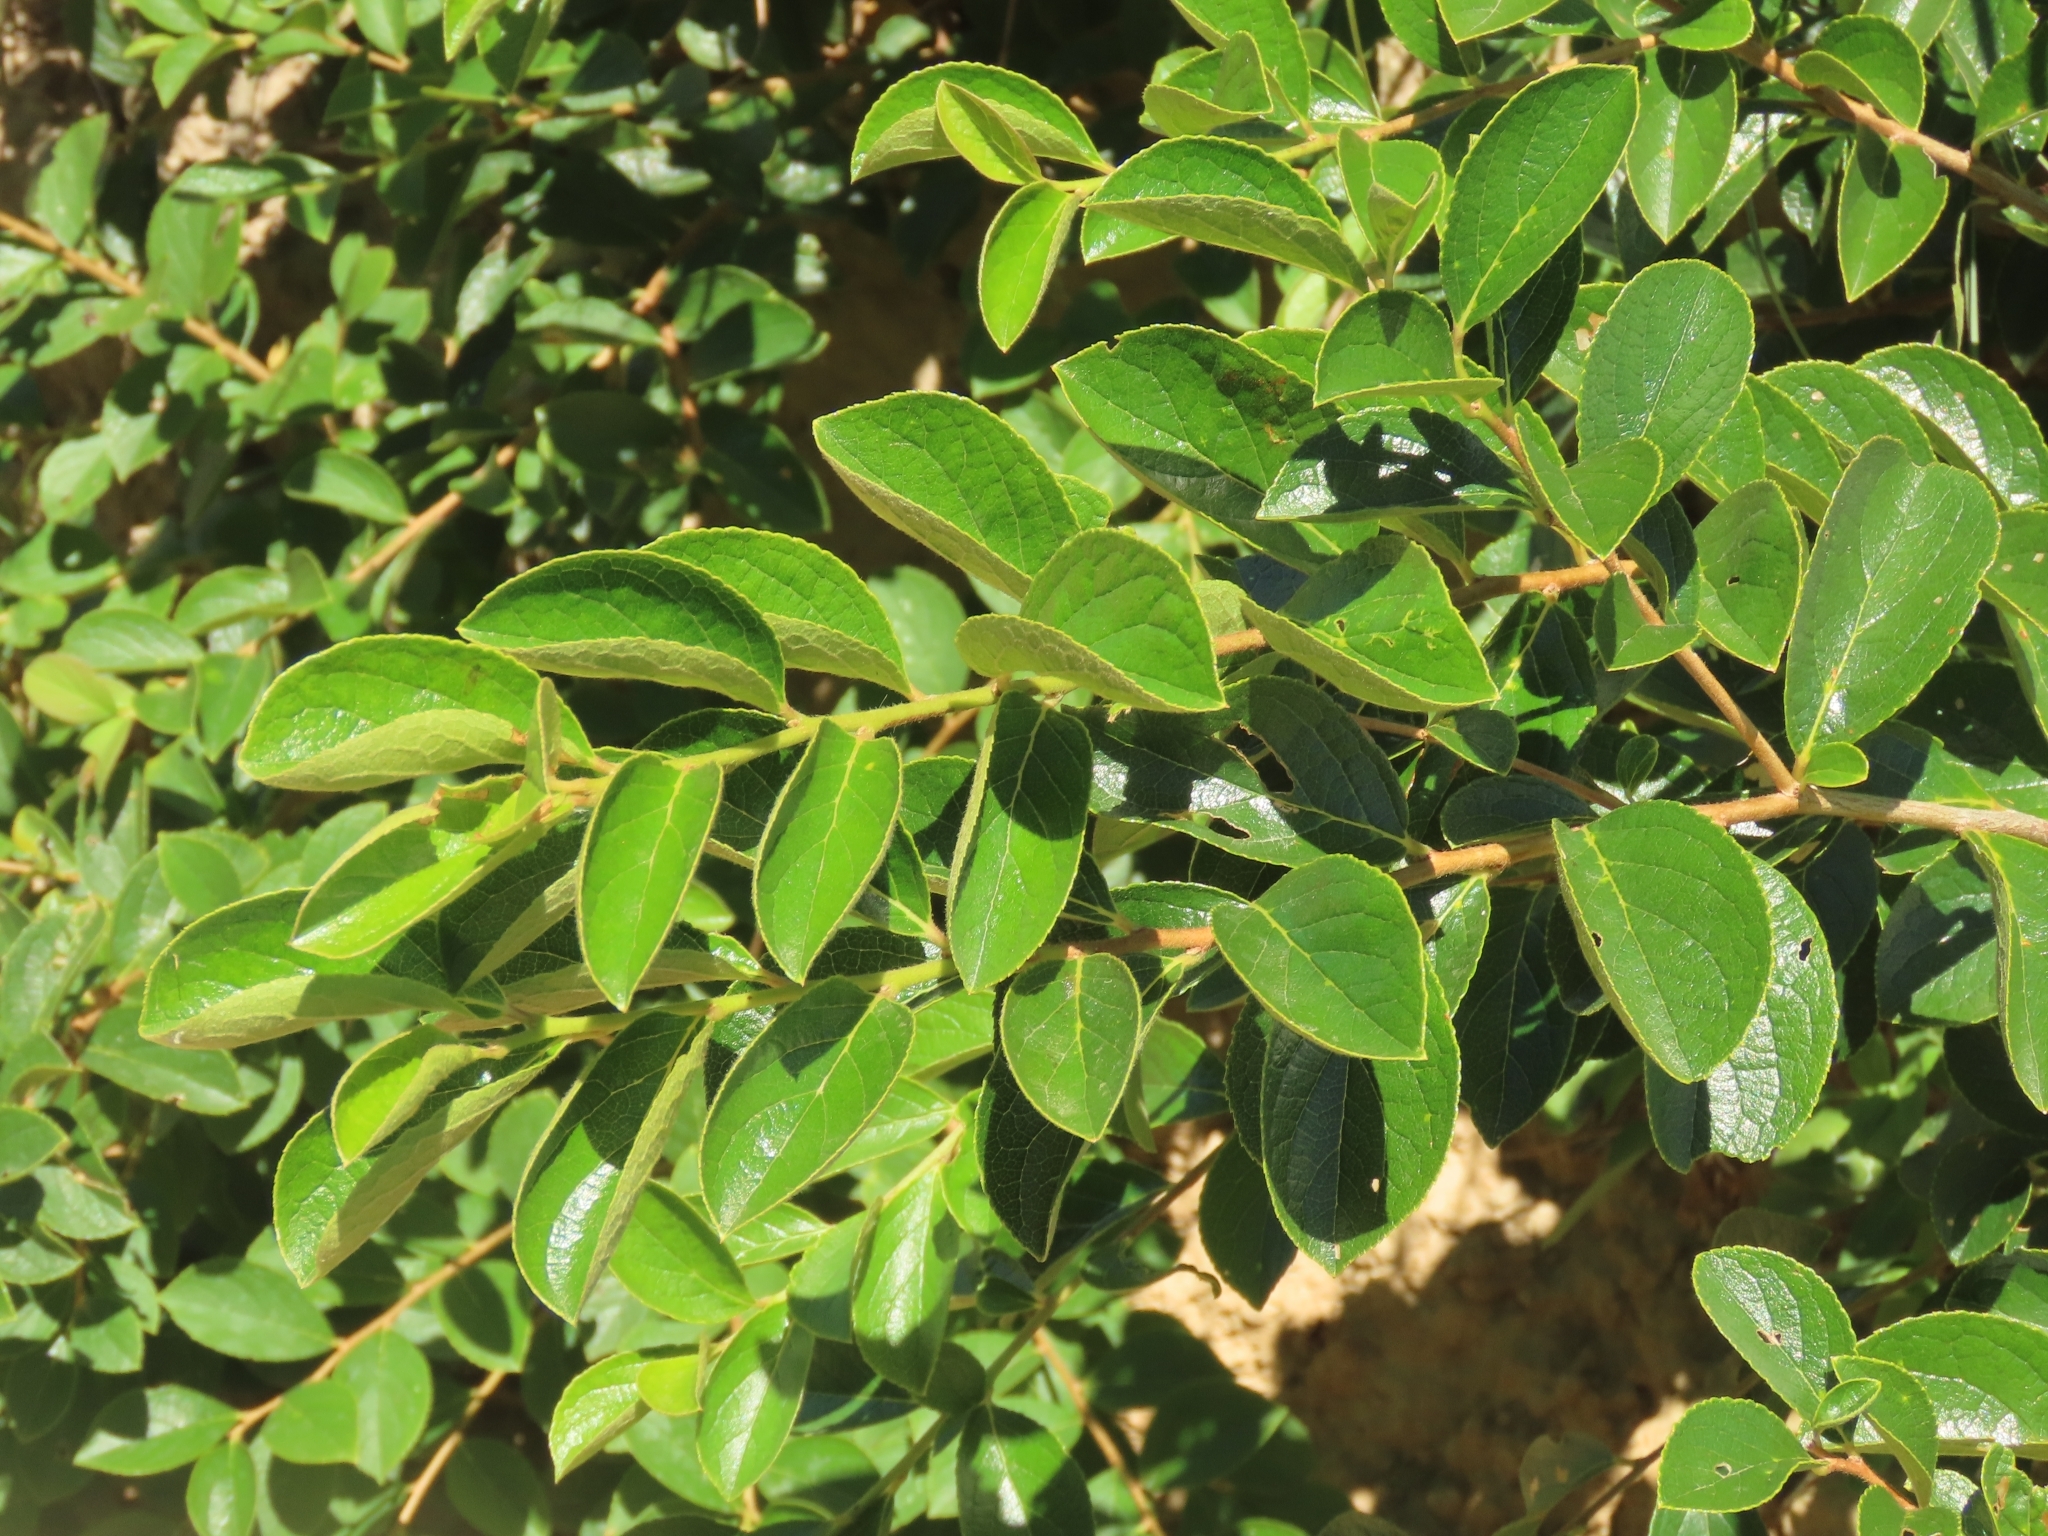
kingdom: Plantae
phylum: Tracheophyta
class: Magnoliopsida
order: Ericales
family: Symplocaceae
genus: Symplocos
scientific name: Symplocos paniculata
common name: Sapphire-berry
